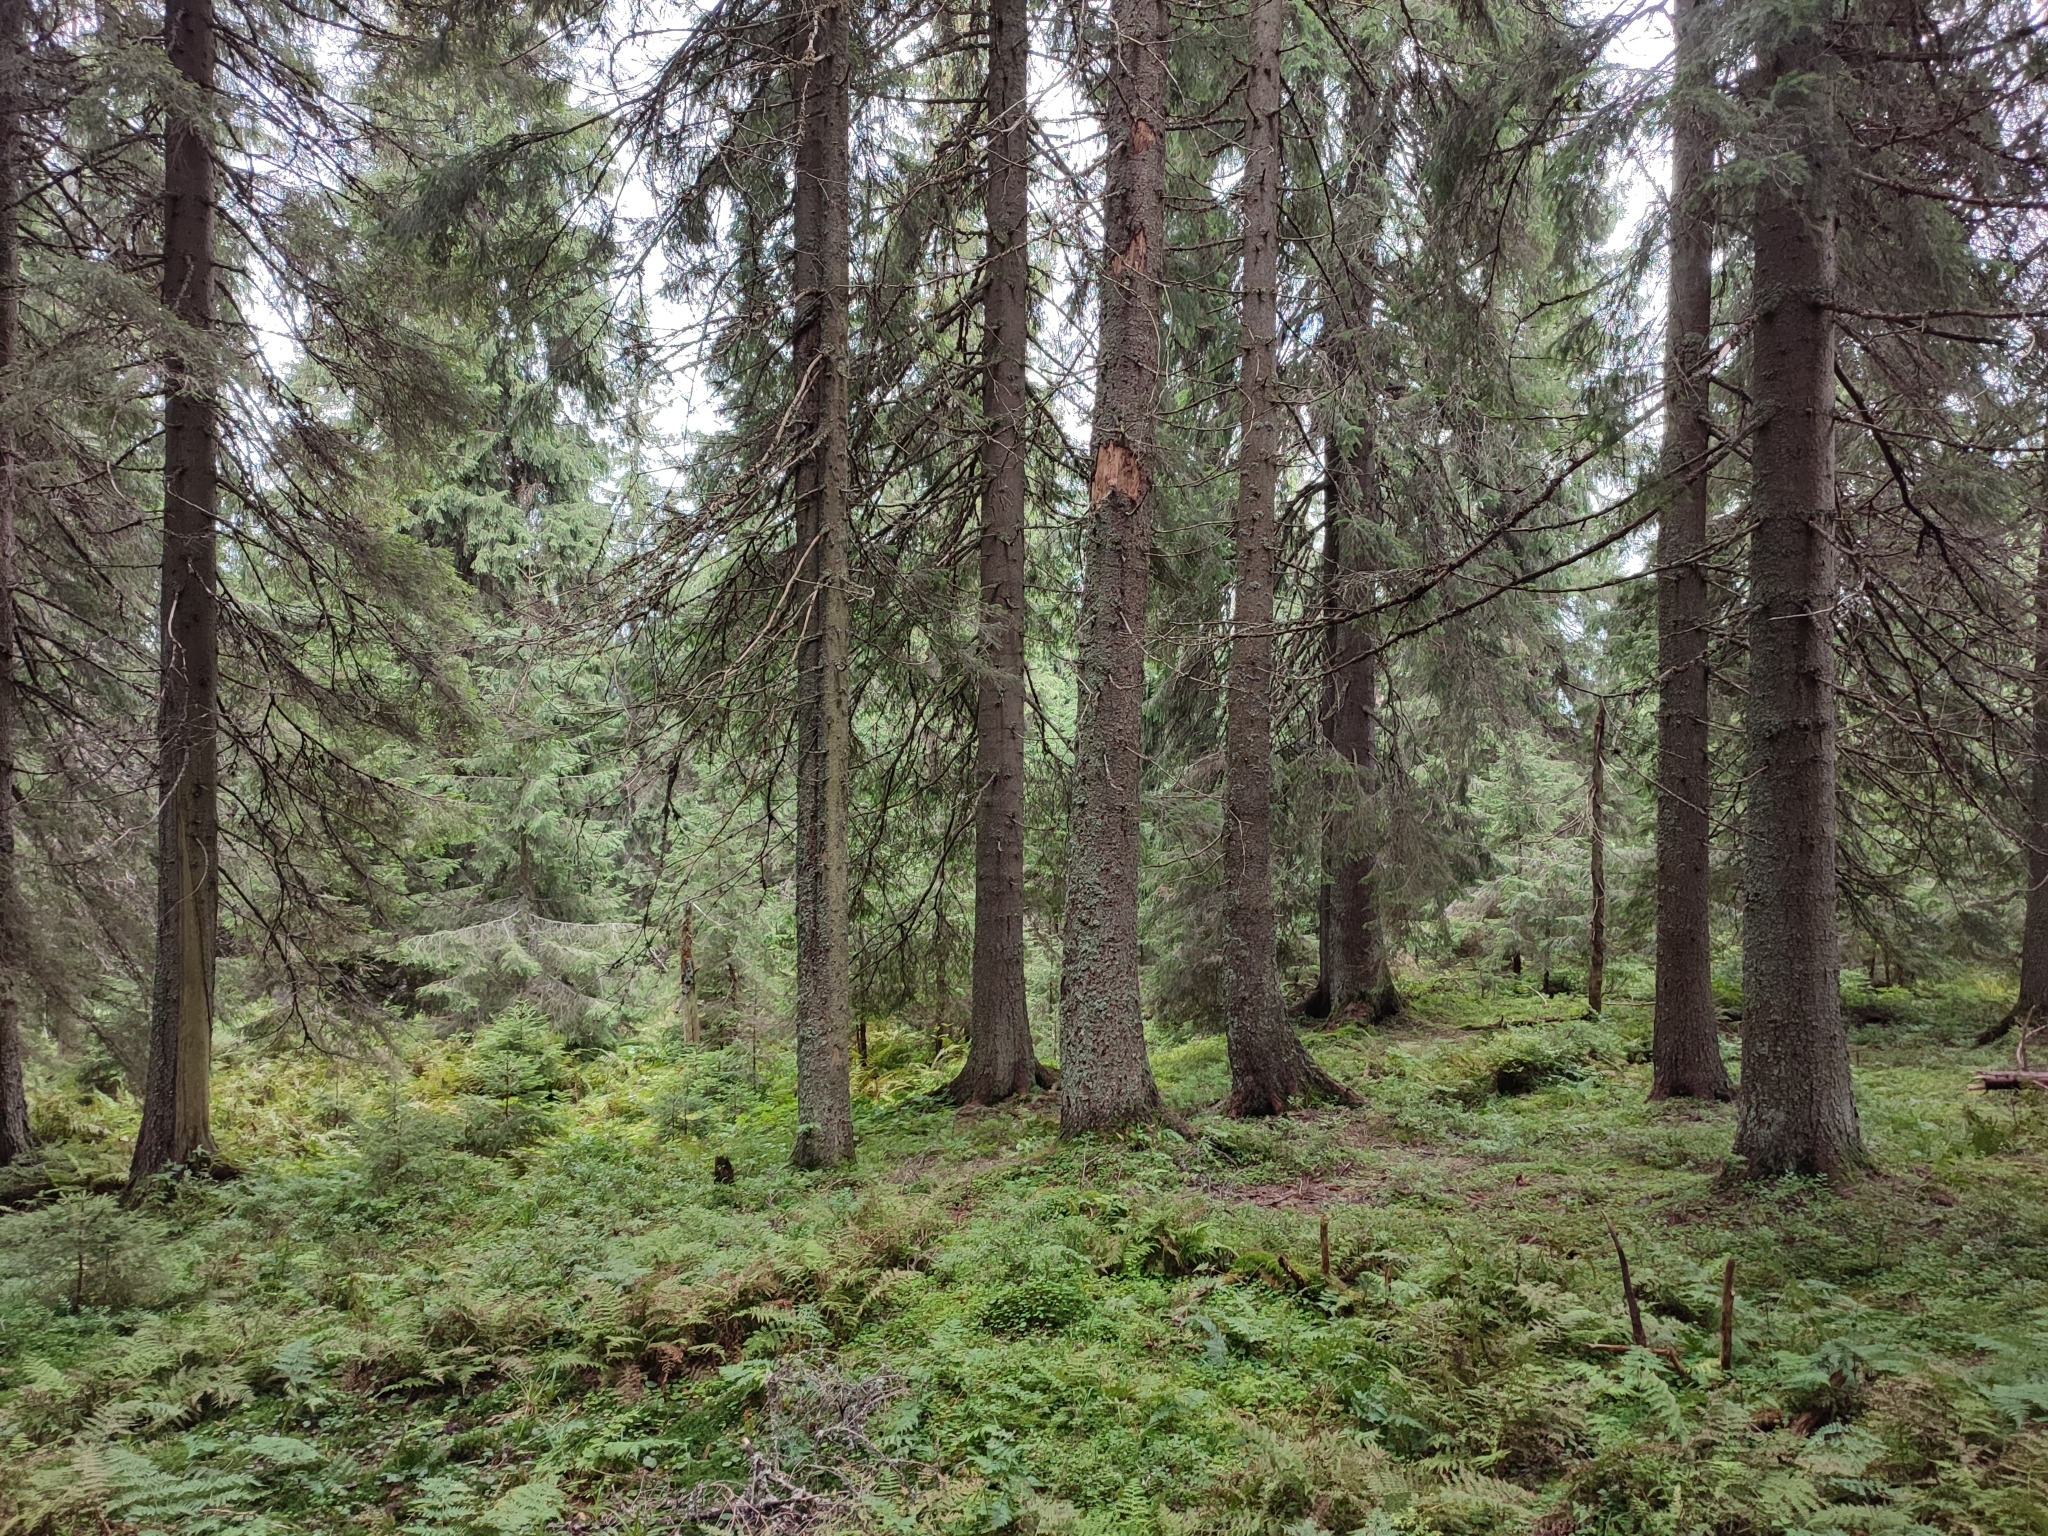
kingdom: Plantae
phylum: Tracheophyta
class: Pinopsida
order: Pinales
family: Pinaceae
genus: Picea
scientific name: Picea abies
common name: Norway spruce
